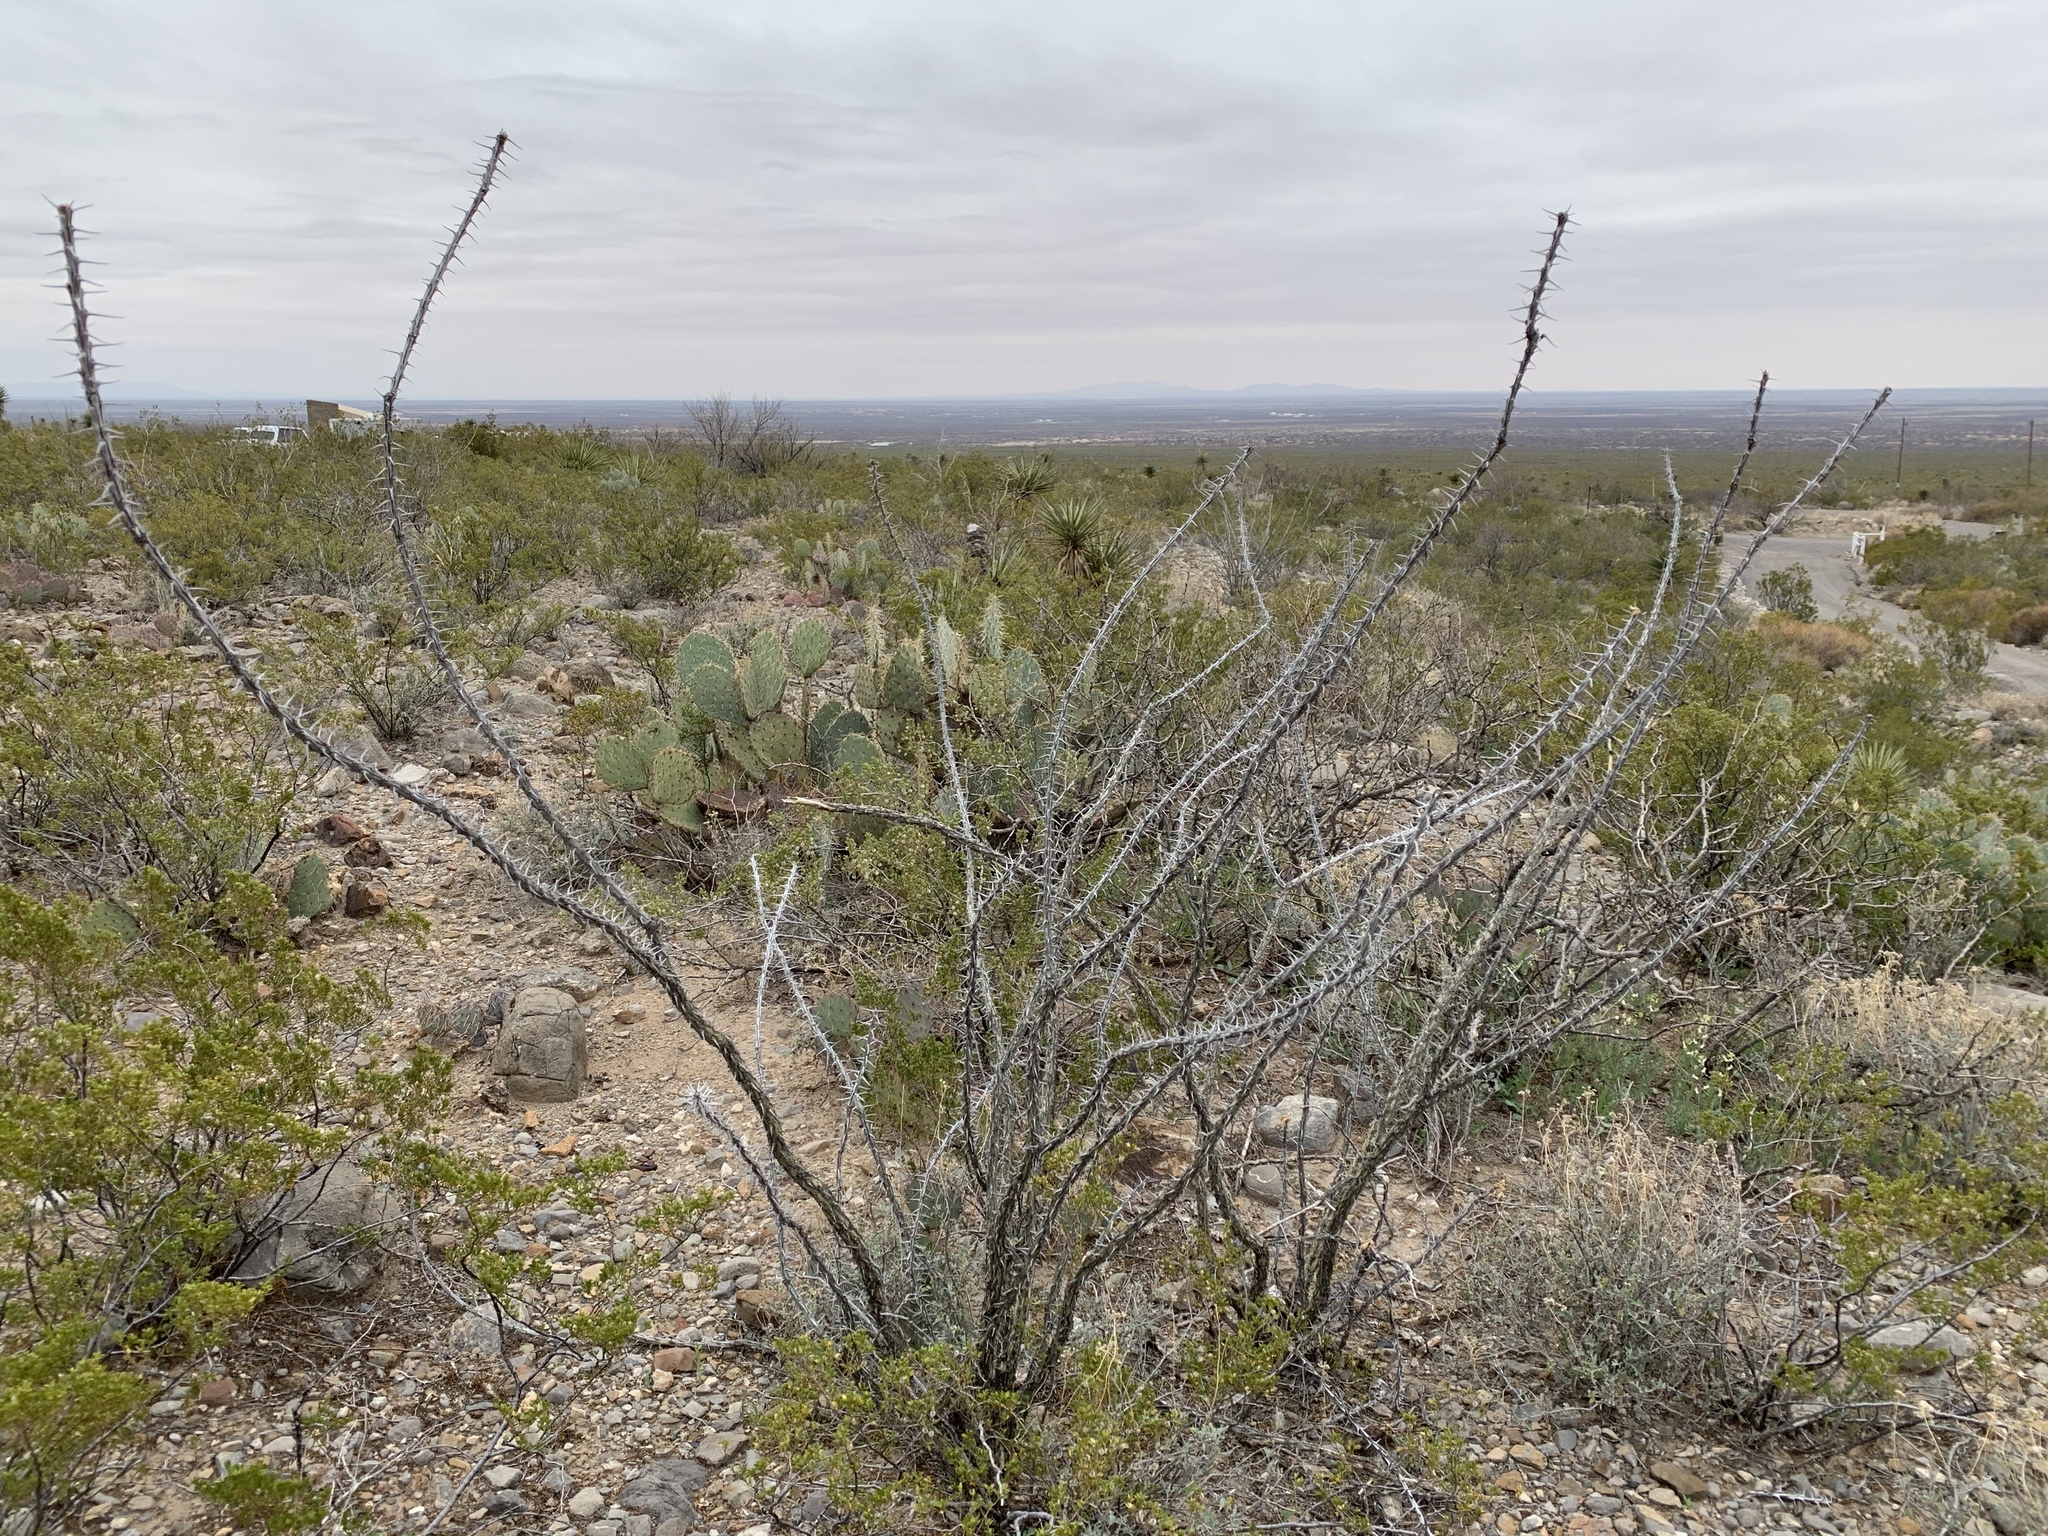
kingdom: Plantae
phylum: Tracheophyta
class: Magnoliopsida
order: Ericales
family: Fouquieriaceae
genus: Fouquieria
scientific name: Fouquieria splendens
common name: Vine-cactus
